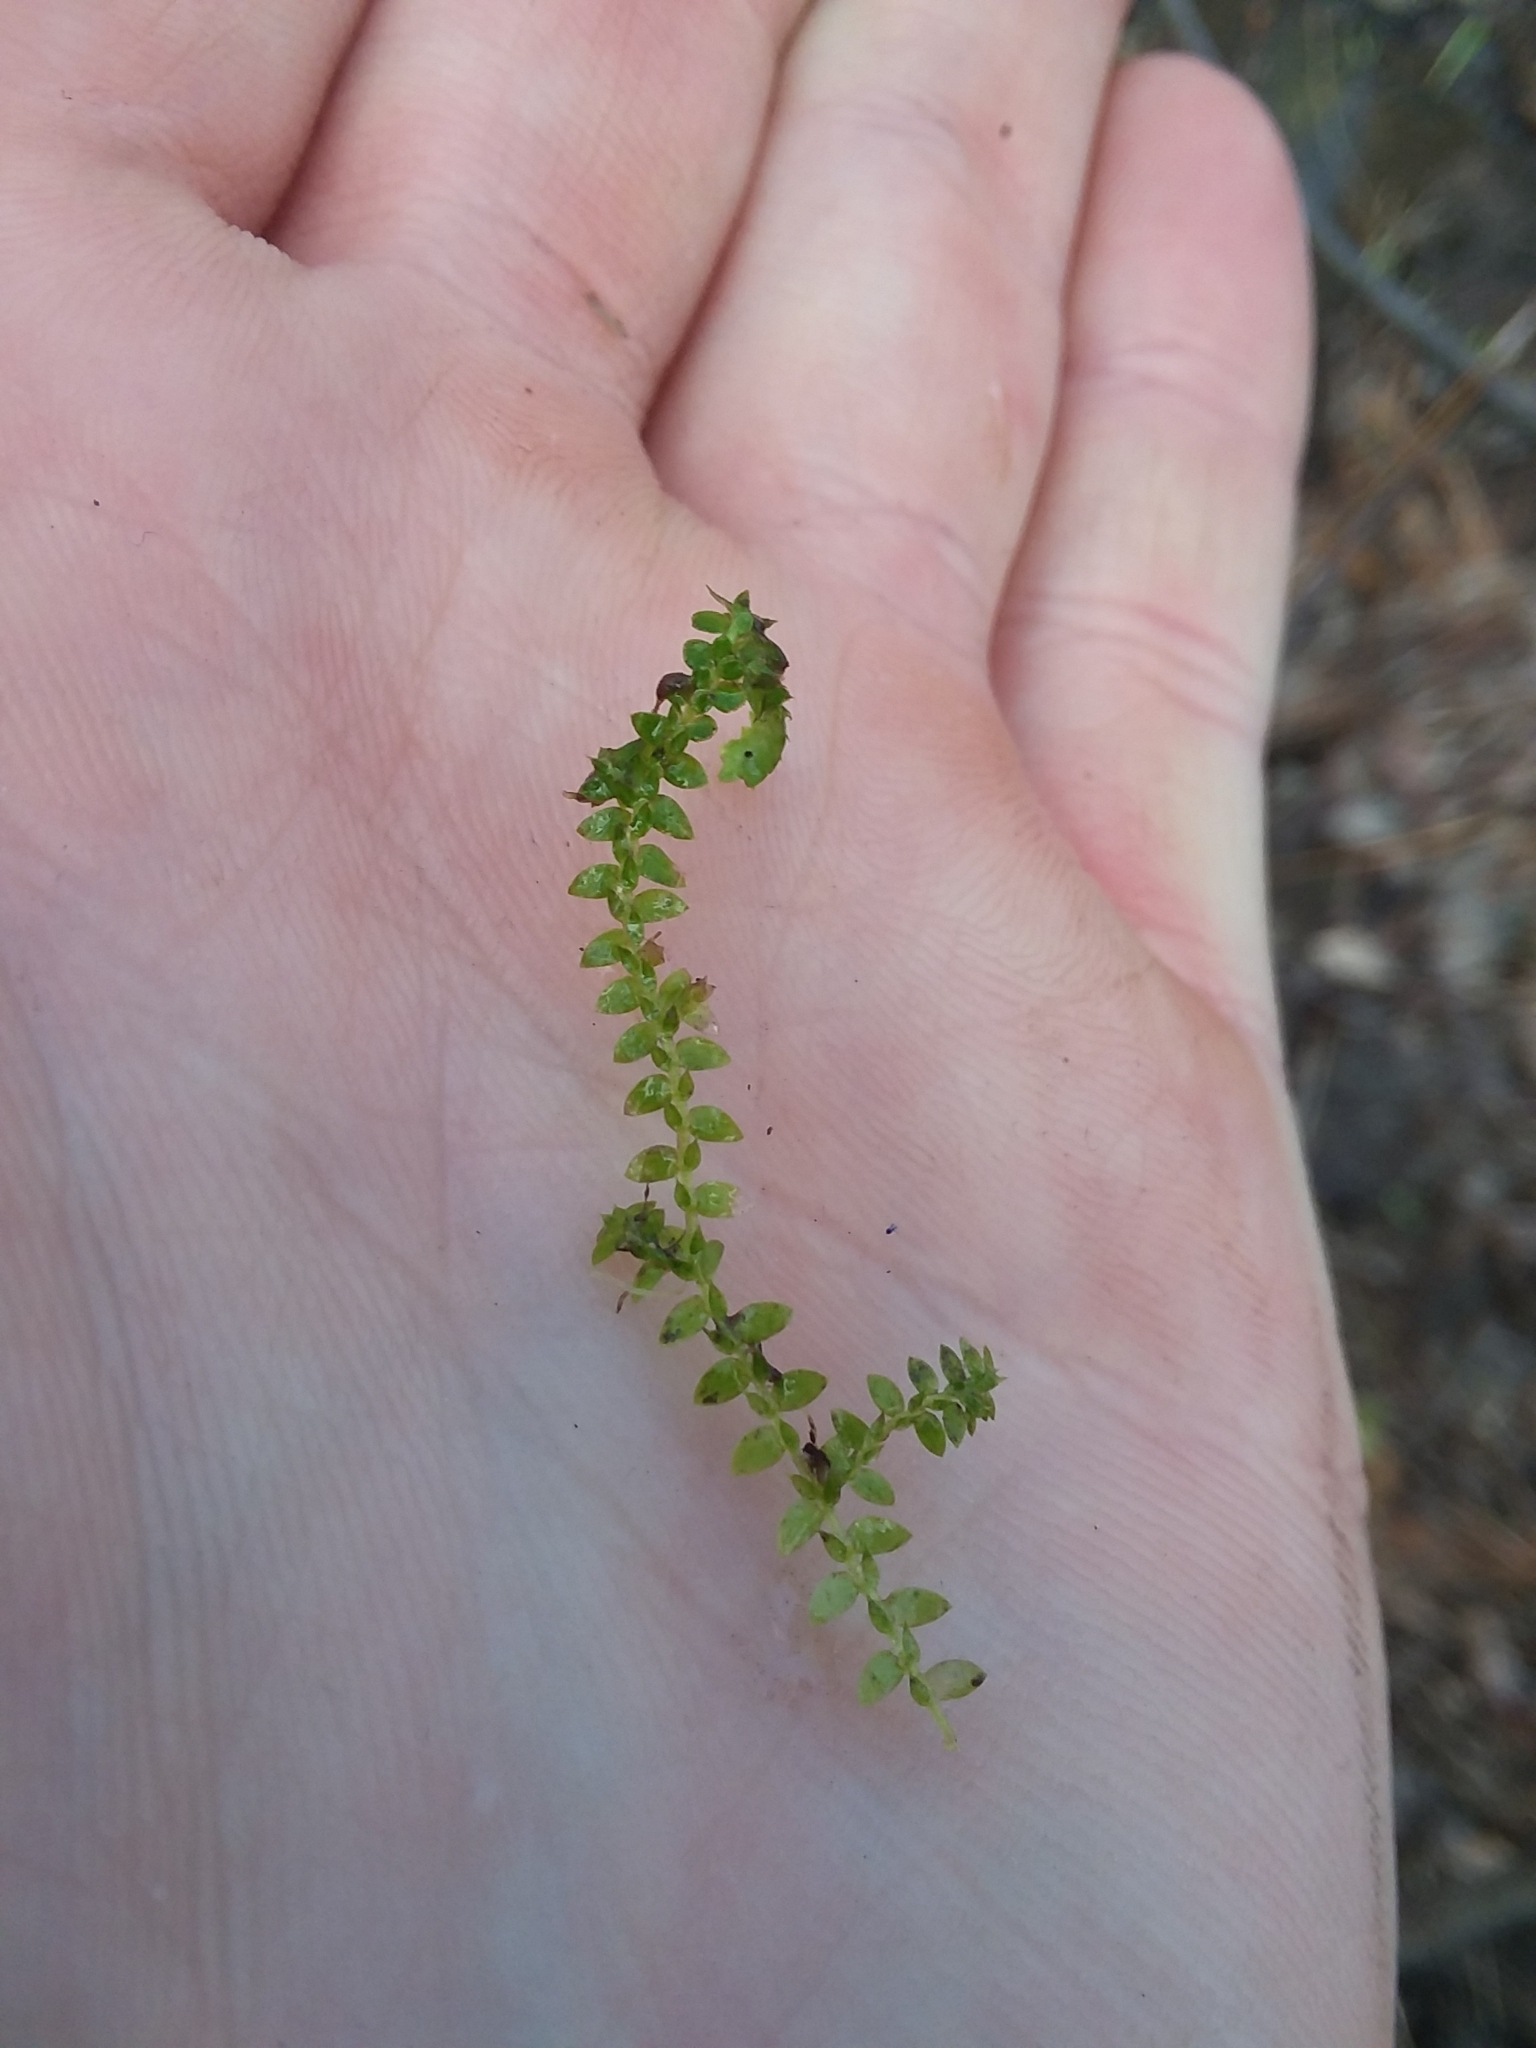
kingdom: Plantae
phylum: Tracheophyta
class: Lycopodiopsida
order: Selaginellales
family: Selaginellaceae
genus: Selaginella
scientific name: Selaginella apoda
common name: Creeping spikemoss
